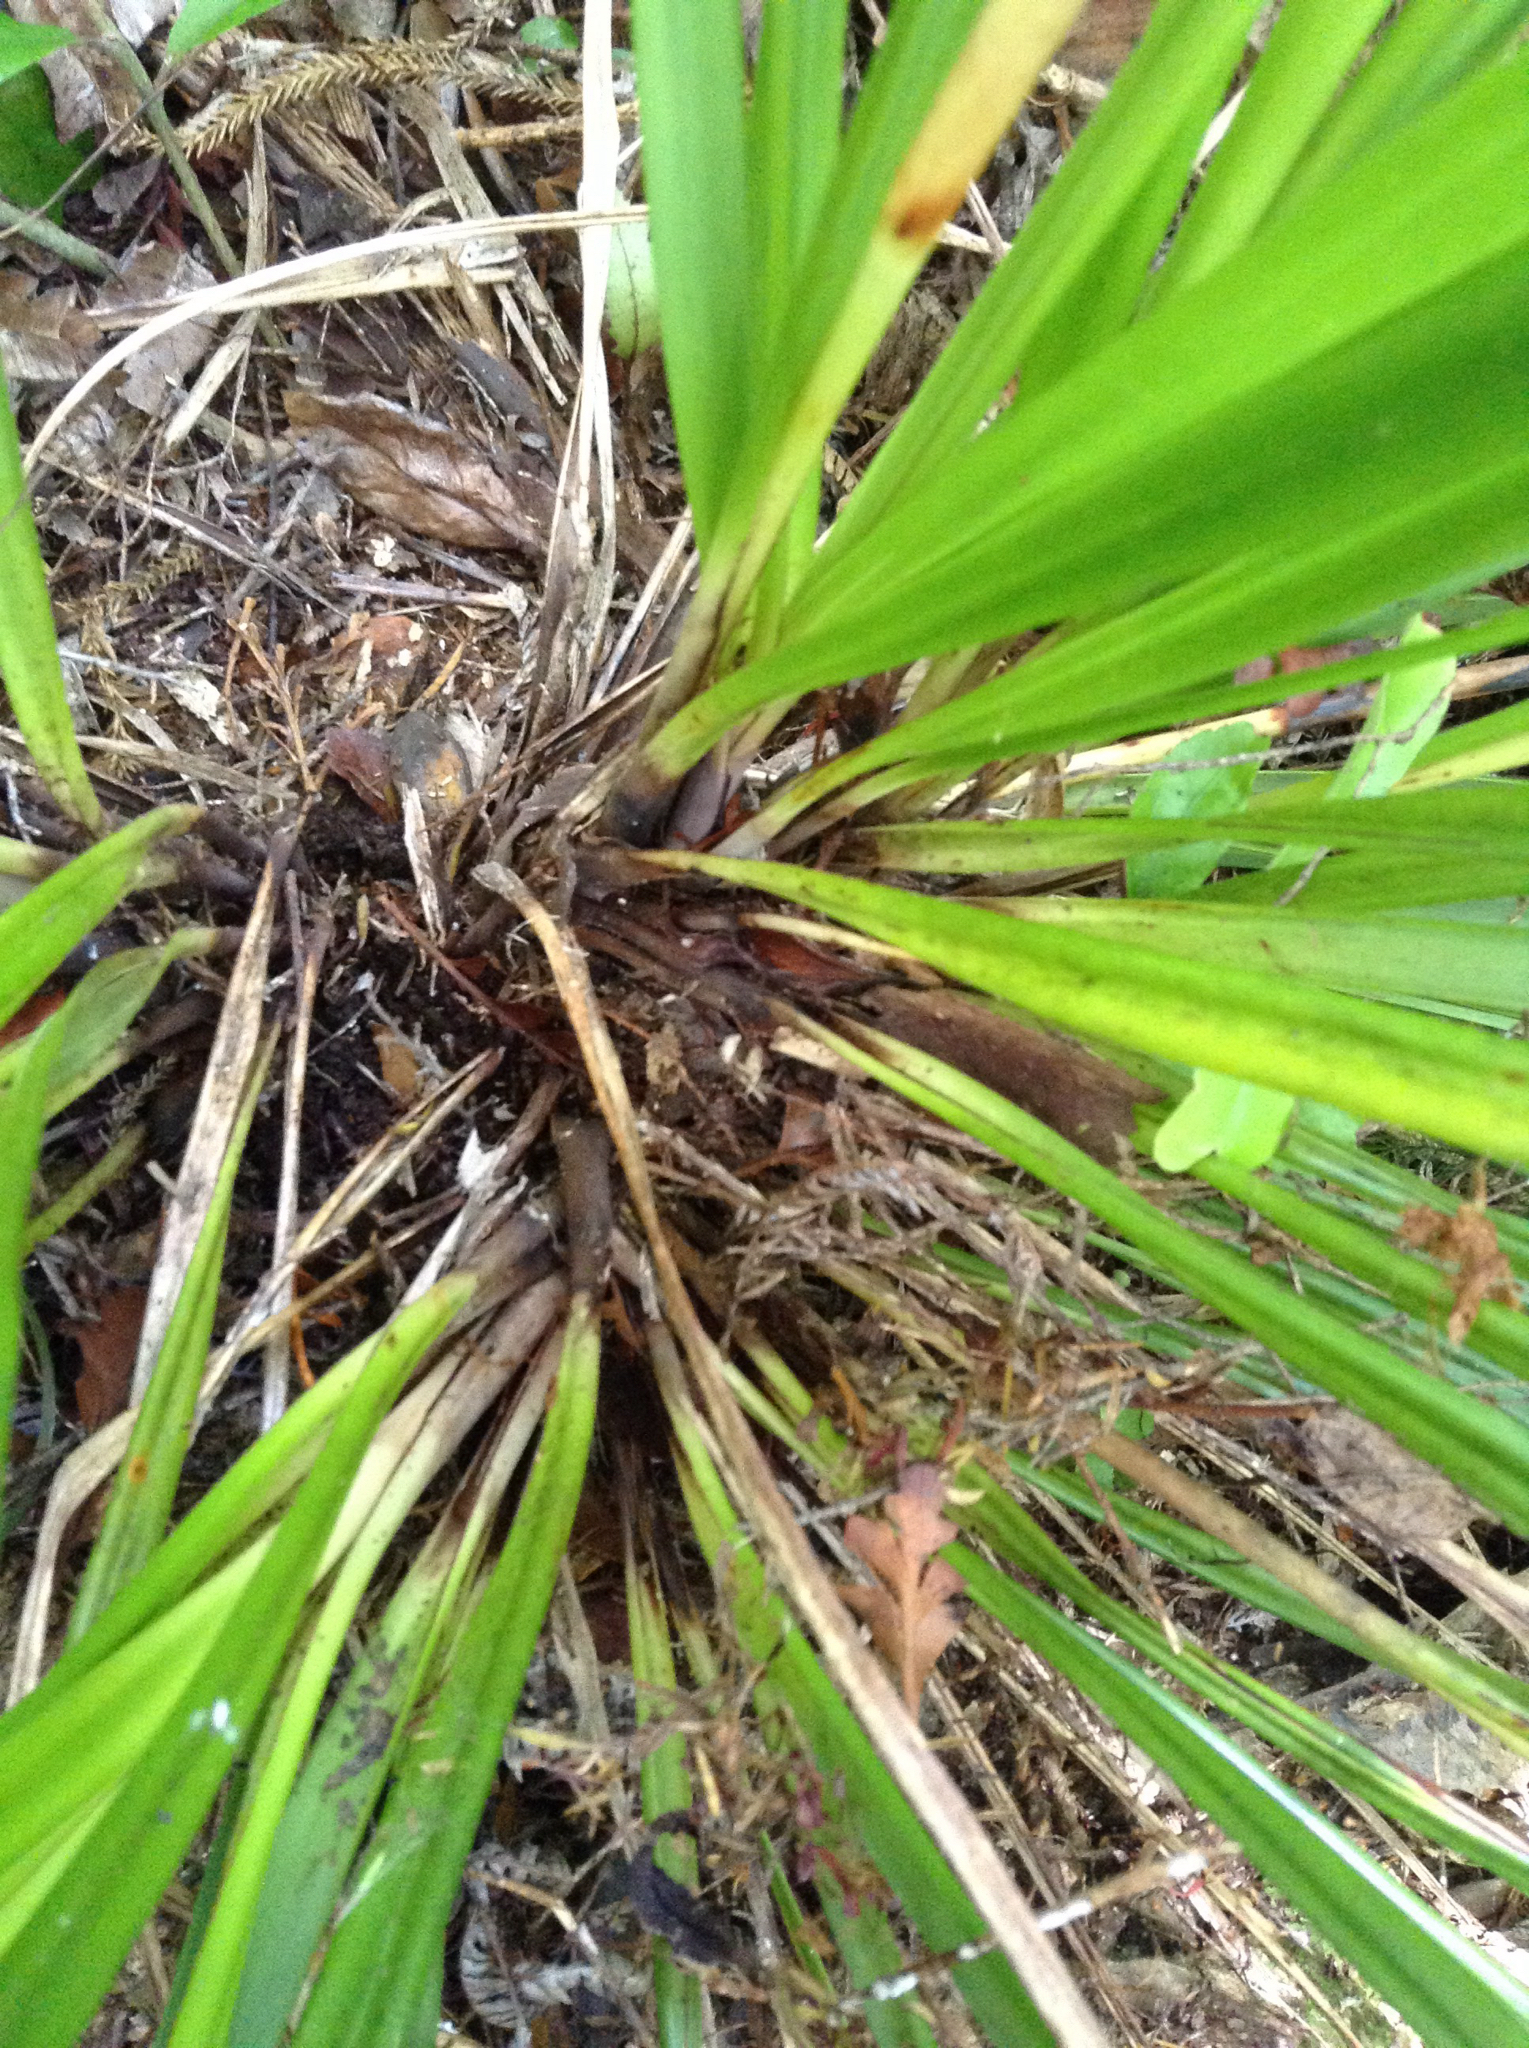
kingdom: Plantae
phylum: Tracheophyta
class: Liliopsida
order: Poales
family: Cyperaceae
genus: Gahnia
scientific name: Gahnia lacera
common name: Sawsedge
